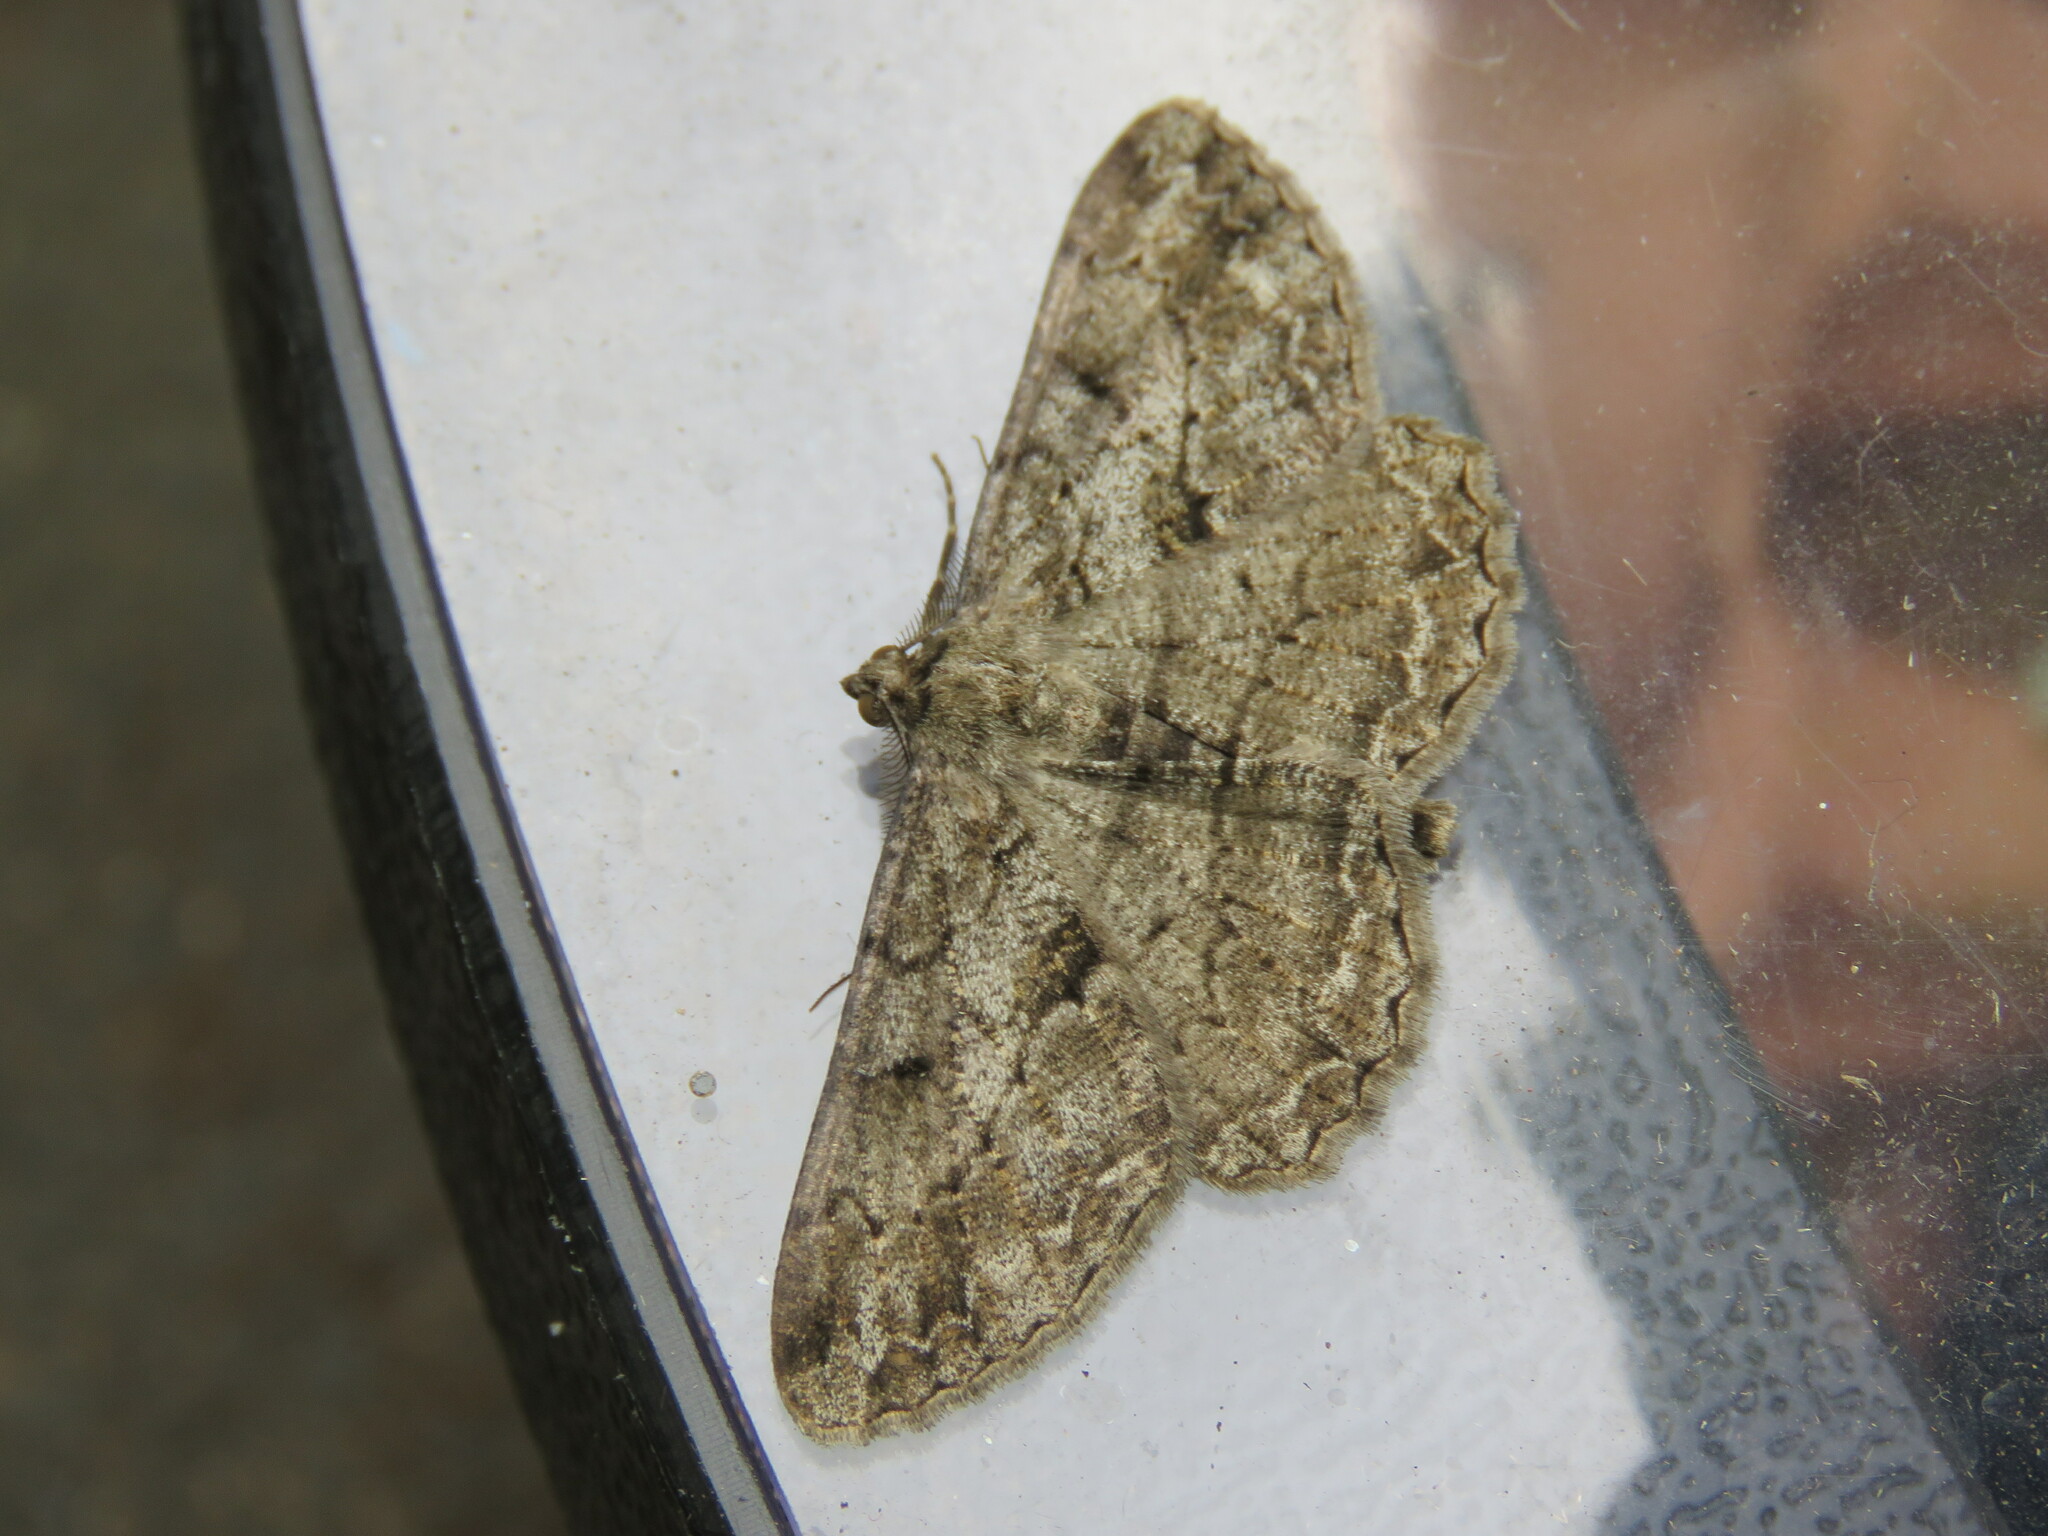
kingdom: Animalia
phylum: Arthropoda
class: Insecta
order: Lepidoptera
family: Geometridae
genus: Peribatodes
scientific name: Peribatodes rhomboidaria
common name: Willow beauty
